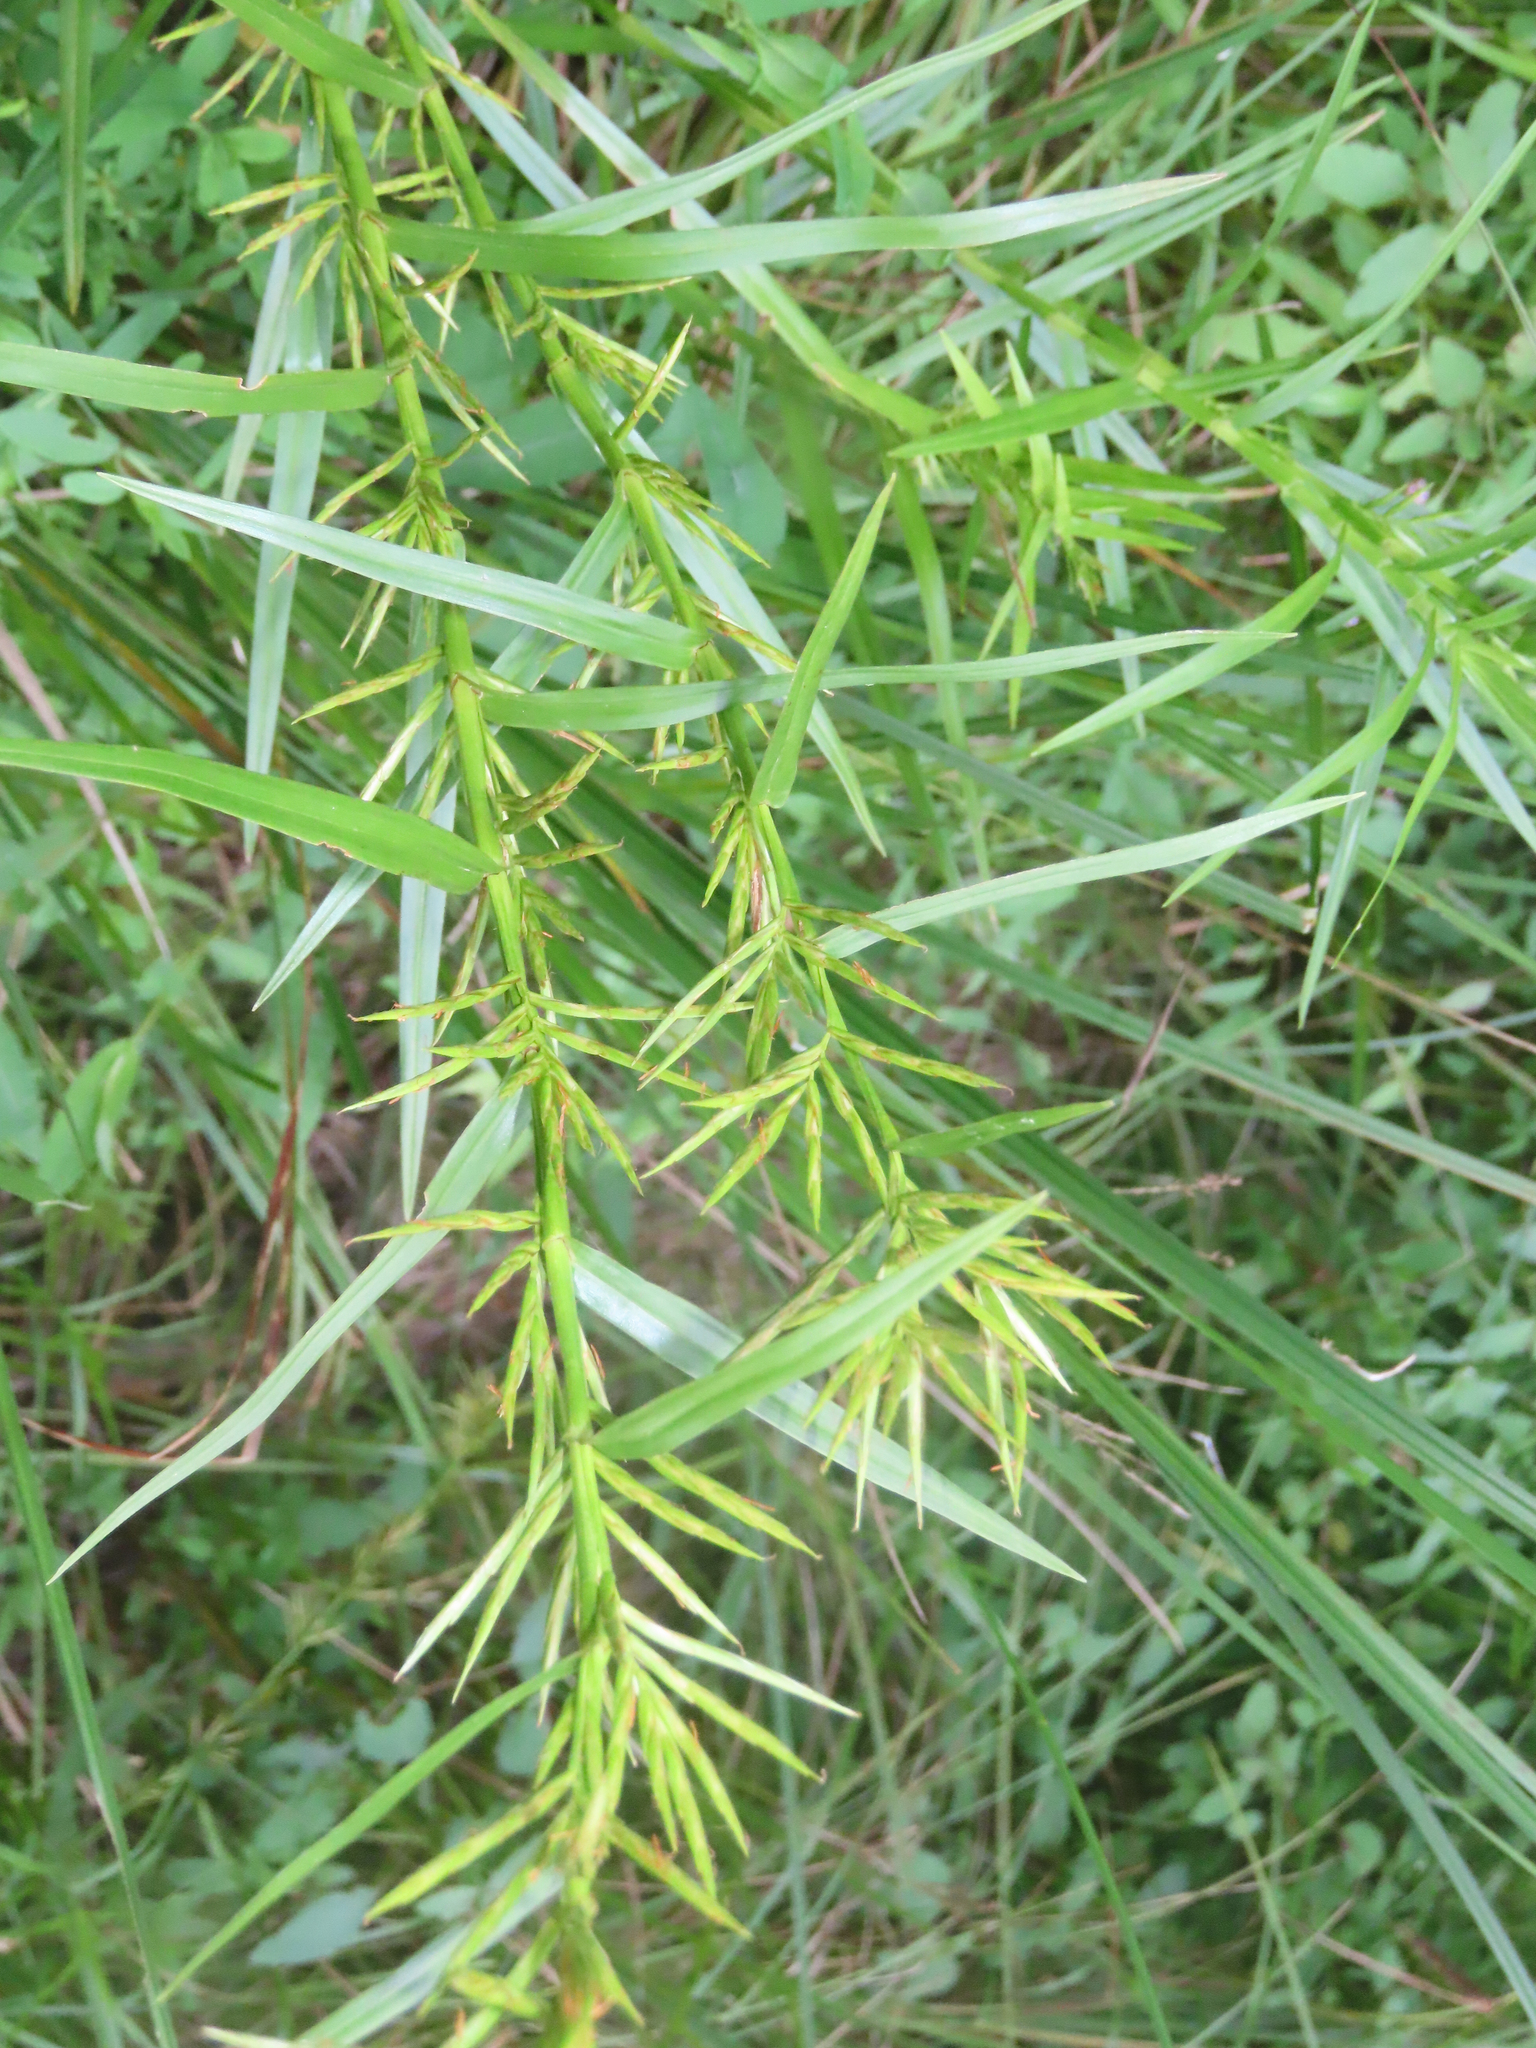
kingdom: Plantae
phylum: Tracheophyta
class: Liliopsida
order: Poales
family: Cyperaceae
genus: Dulichium
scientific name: Dulichium arundinaceum
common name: Three-way sedge
